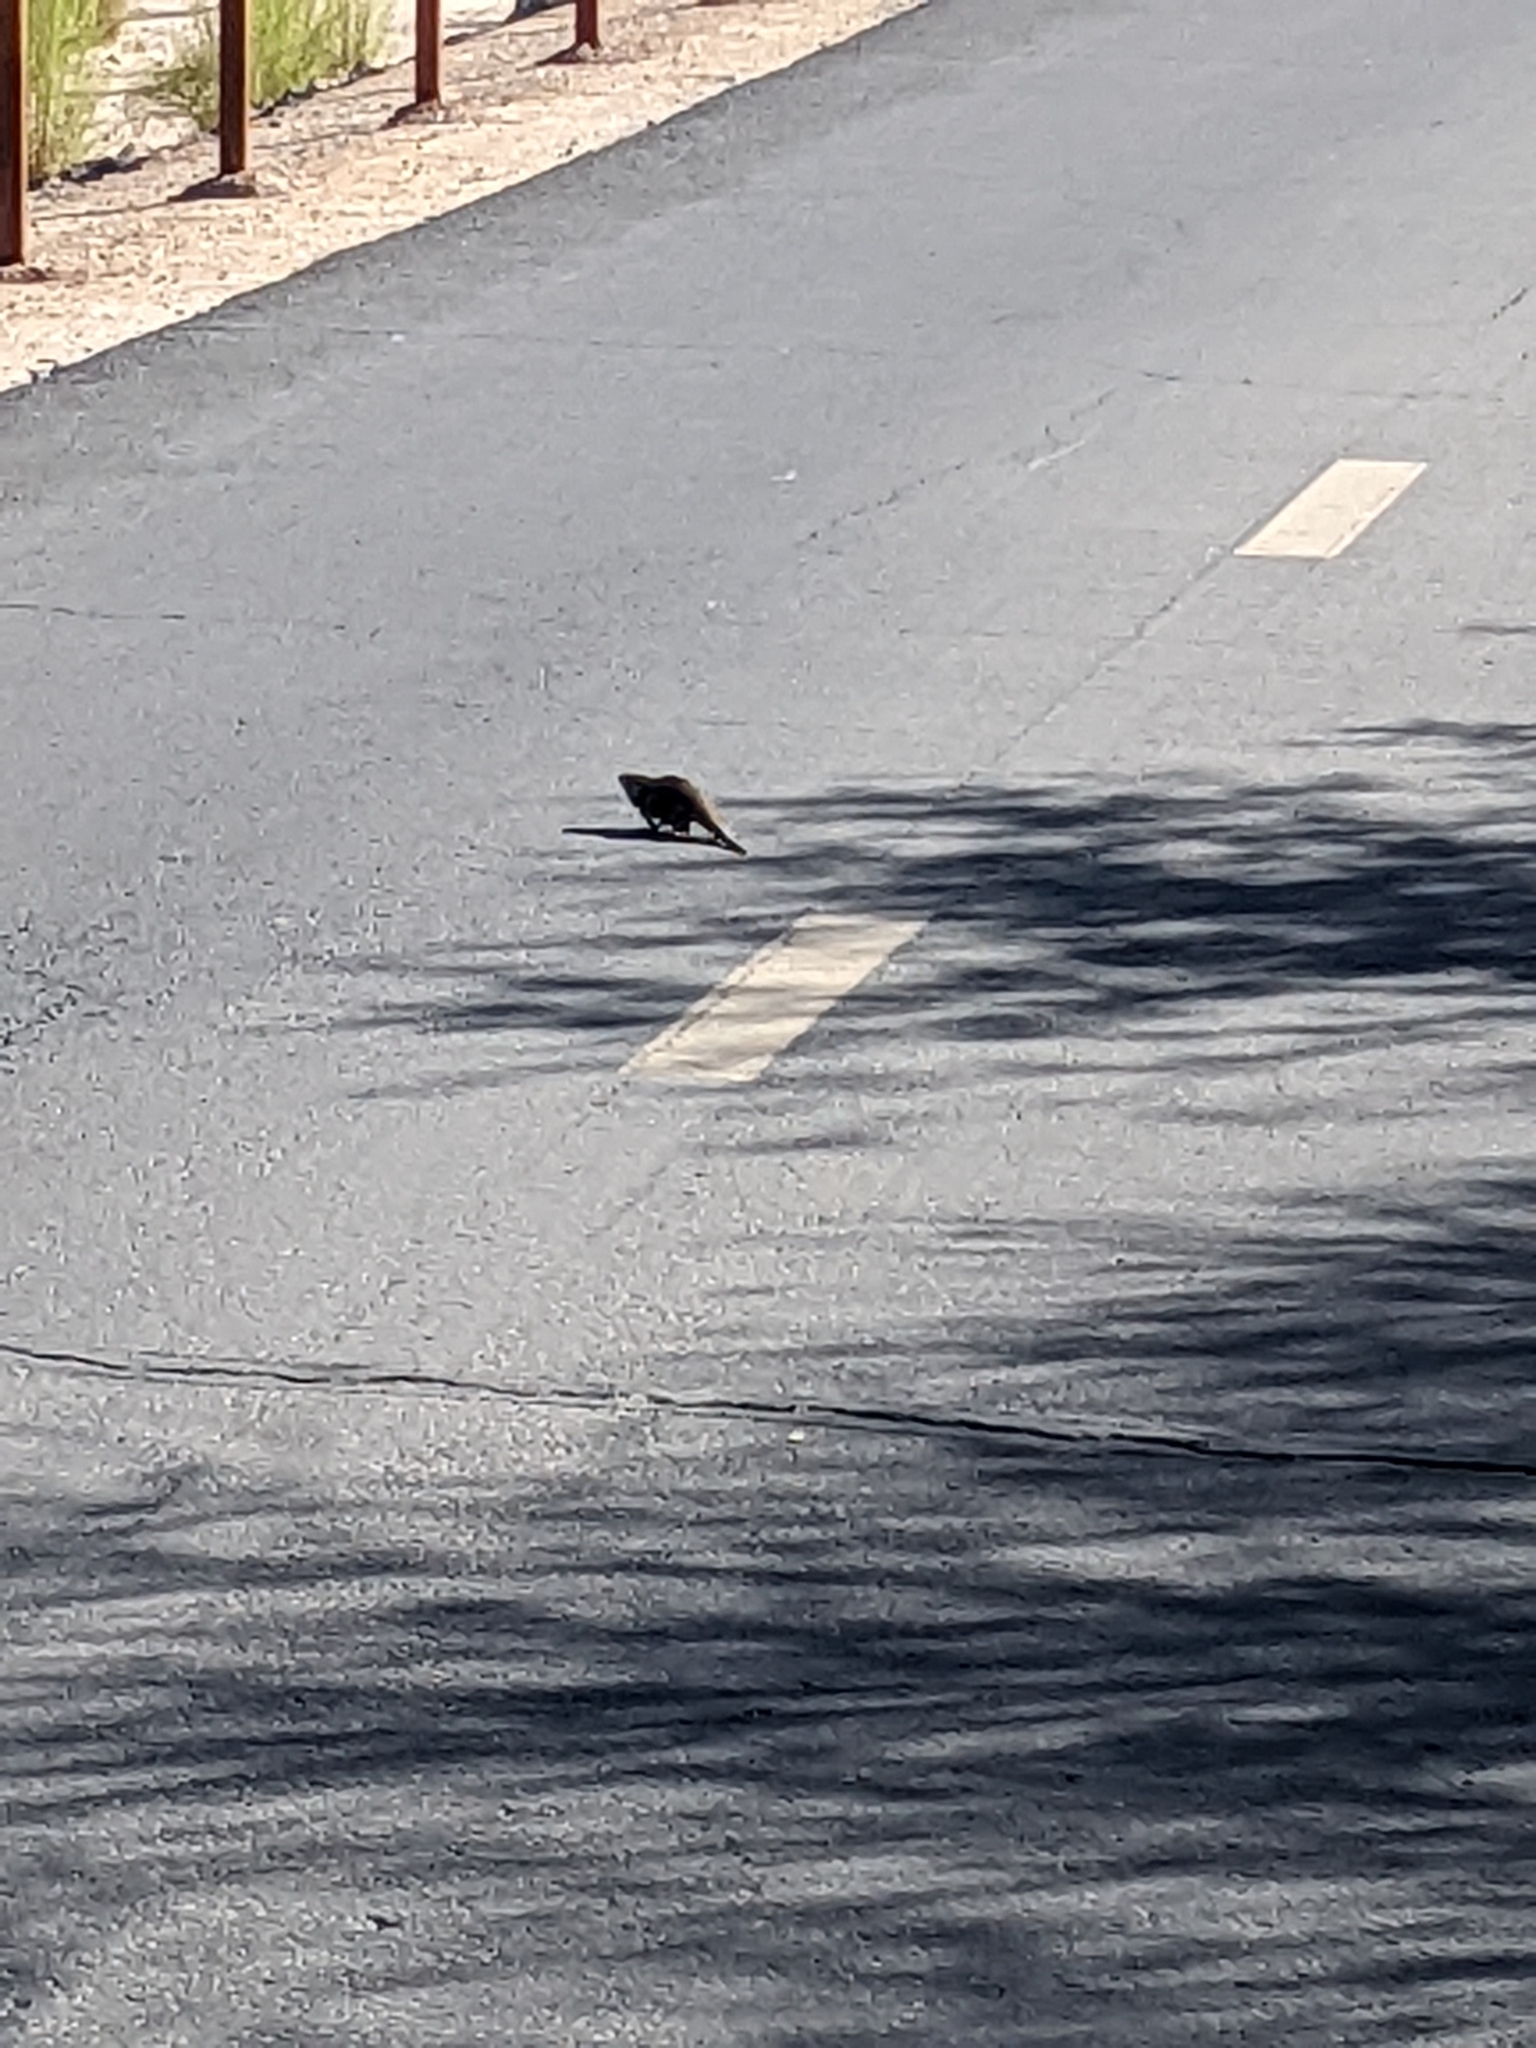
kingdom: Animalia
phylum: Chordata
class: Squamata
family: Phrynosomatidae
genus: Sceloporus
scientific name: Sceloporus magister
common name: Desert spiny lizard
